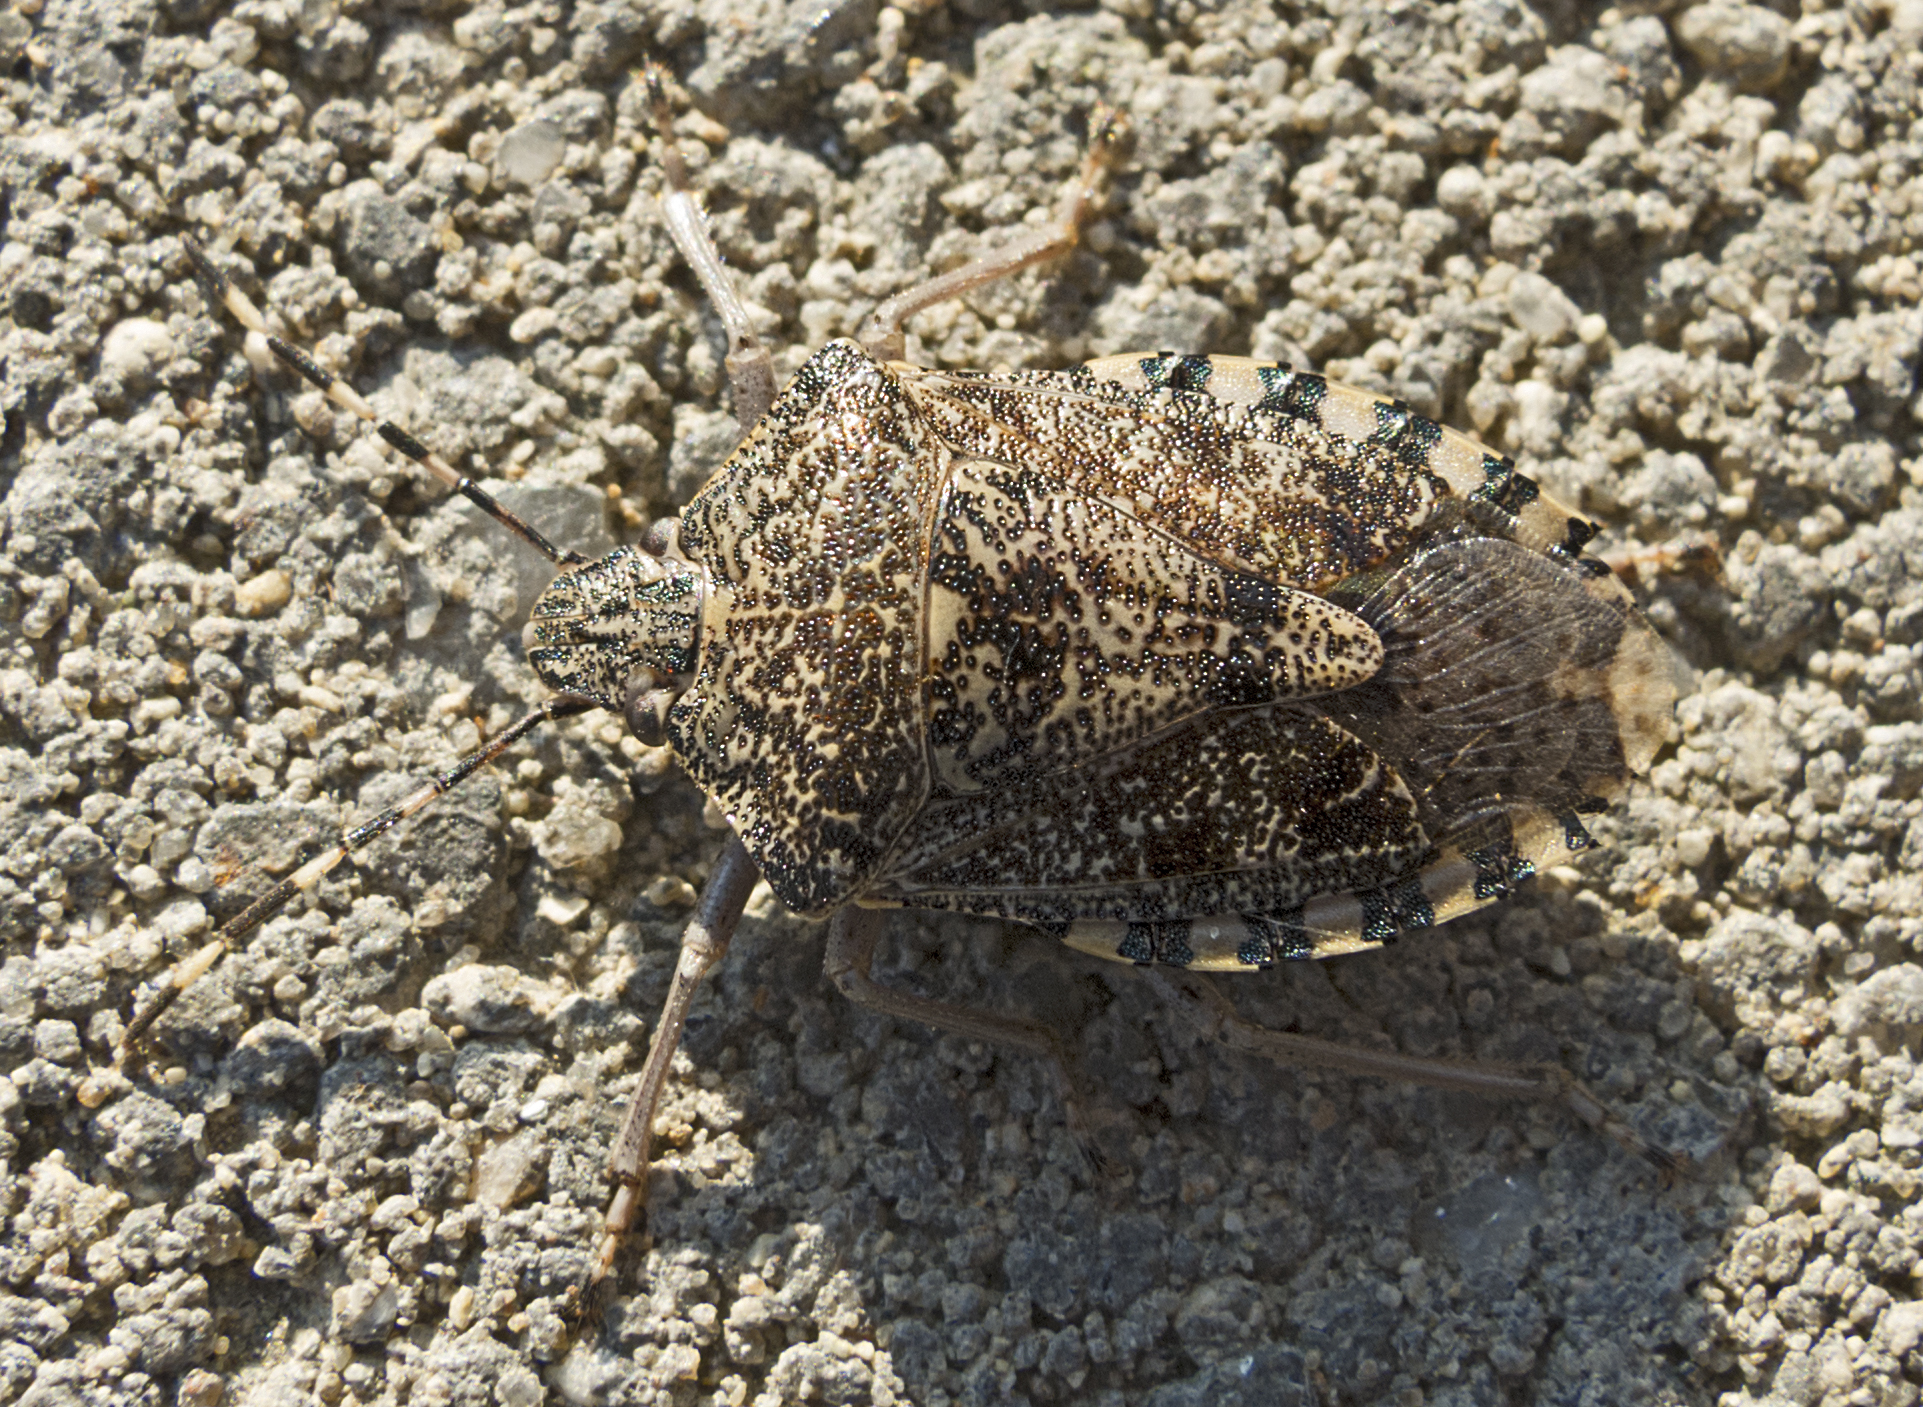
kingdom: Animalia
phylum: Arthropoda
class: Insecta
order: Hemiptera
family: Pentatomidae
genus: Rhaphigaster
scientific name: Rhaphigaster nebulosa
